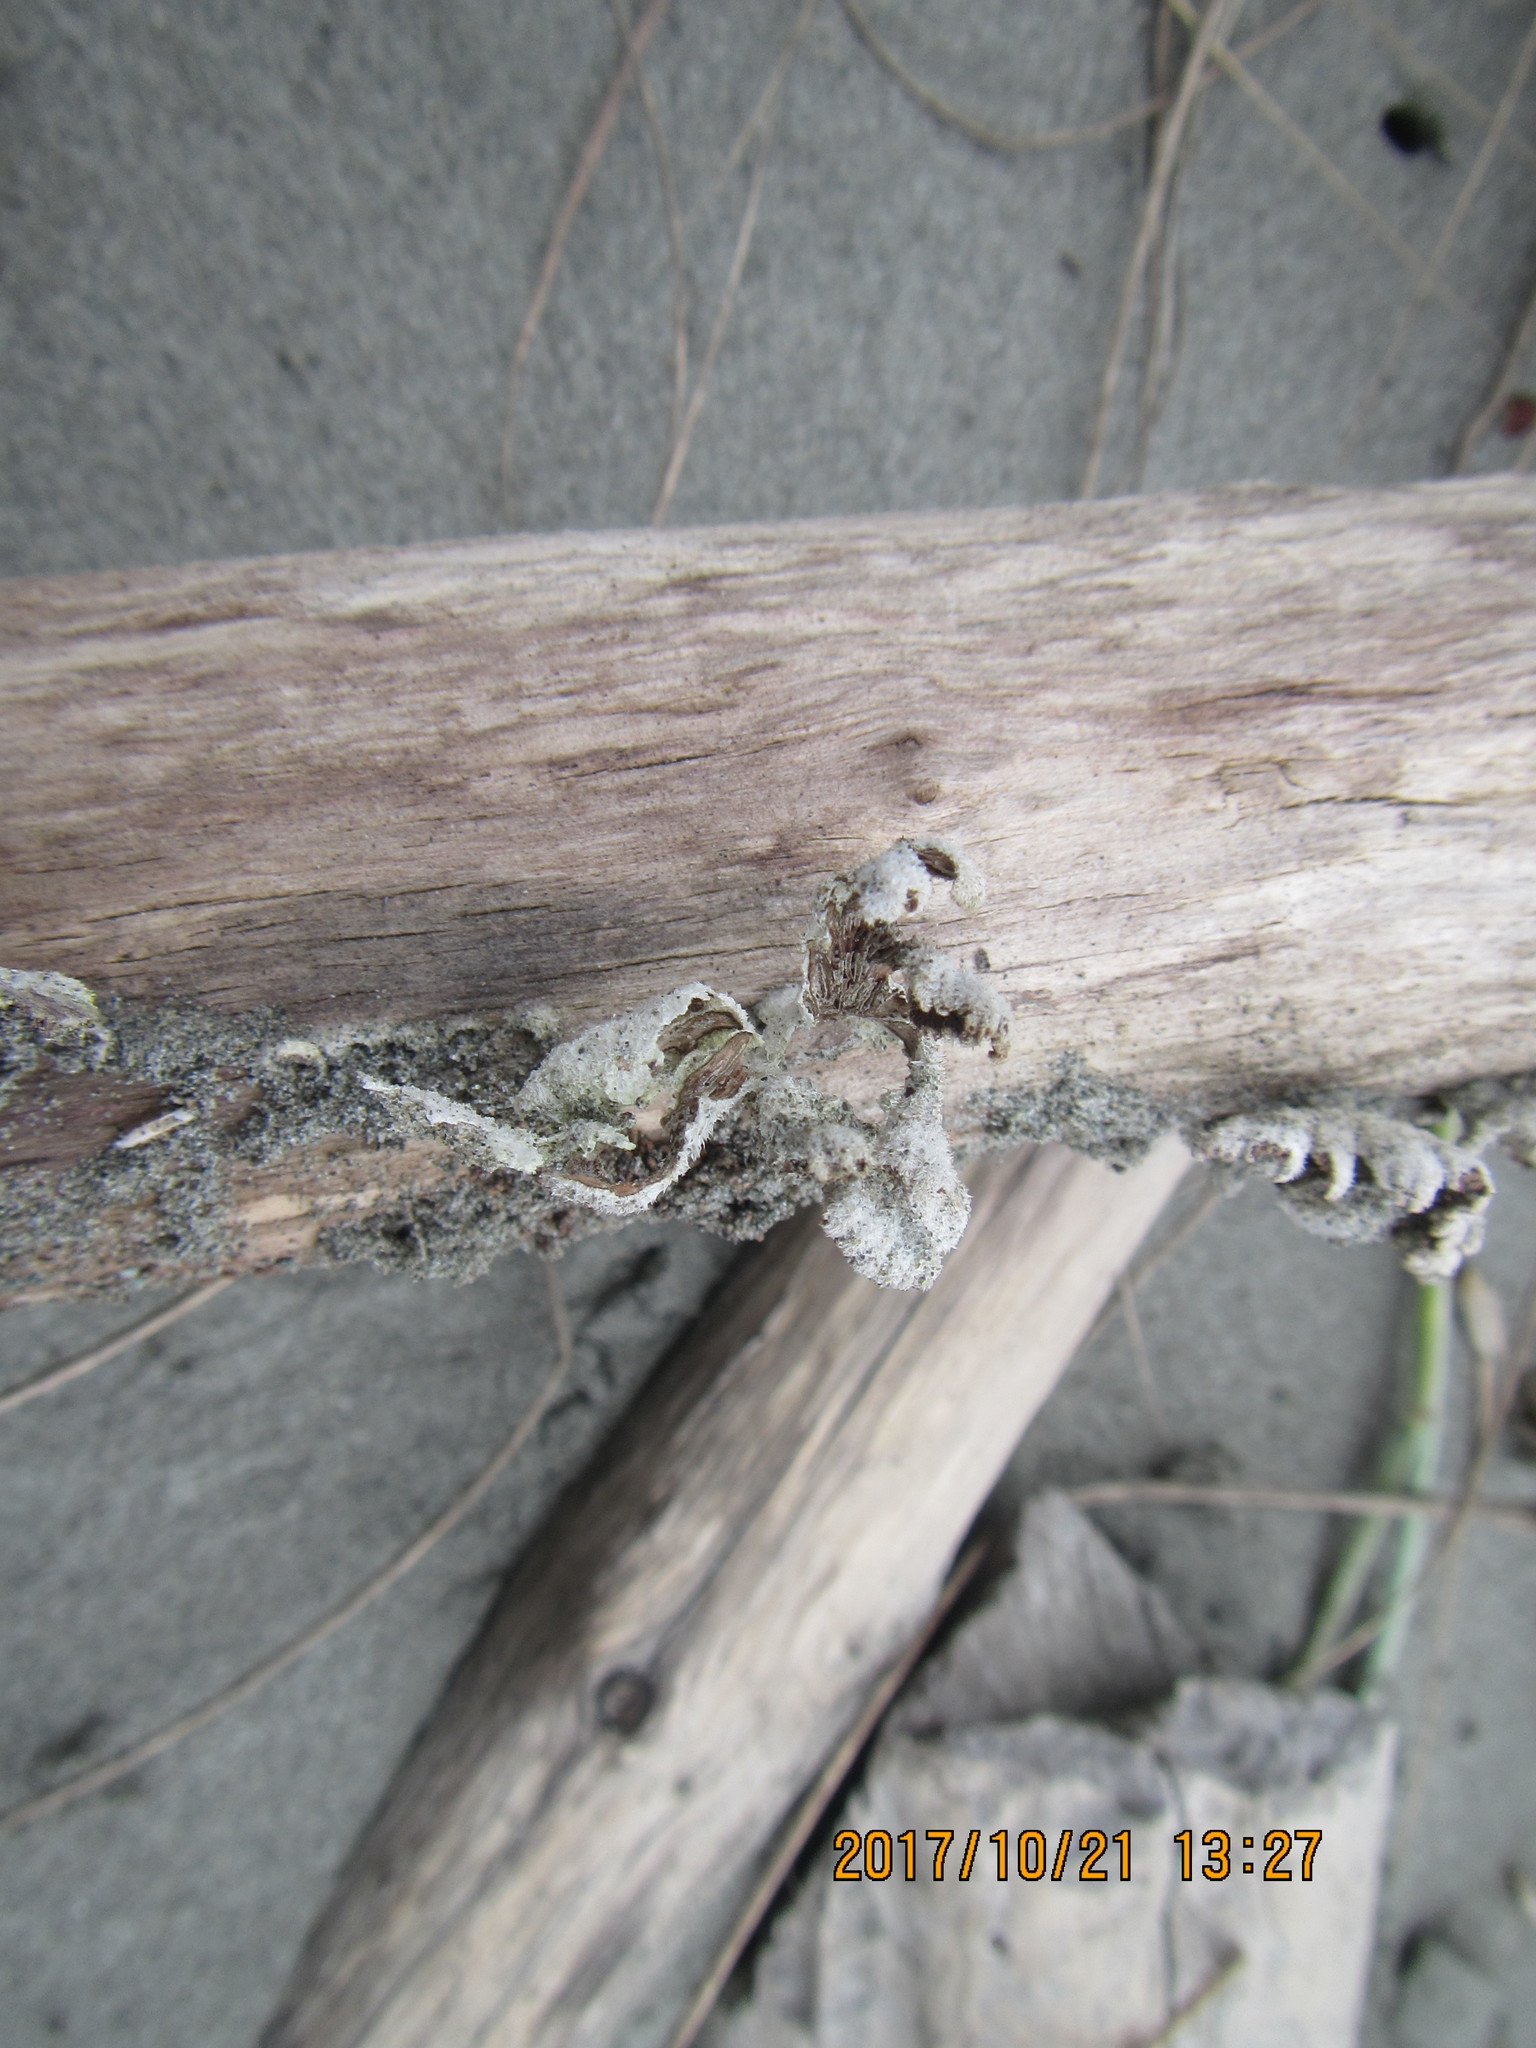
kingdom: Fungi
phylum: Basidiomycota
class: Agaricomycetes
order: Agaricales
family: Schizophyllaceae
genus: Schizophyllum
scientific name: Schizophyllum commune
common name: Common porecrust
